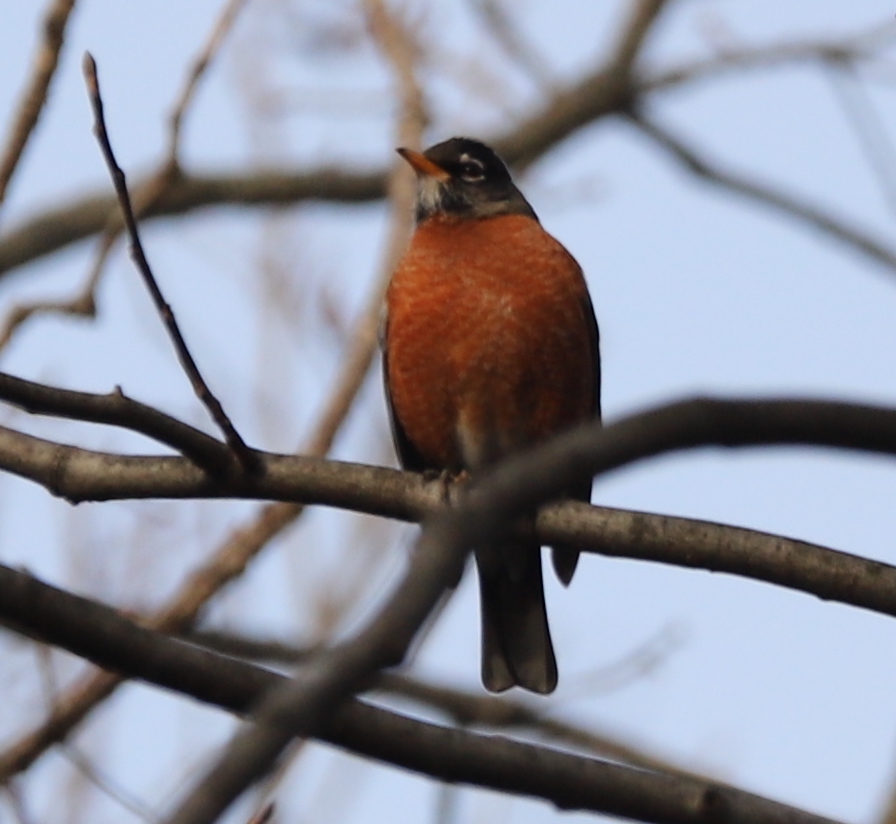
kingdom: Animalia
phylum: Chordata
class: Aves
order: Passeriformes
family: Turdidae
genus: Turdus
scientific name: Turdus migratorius
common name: American robin
